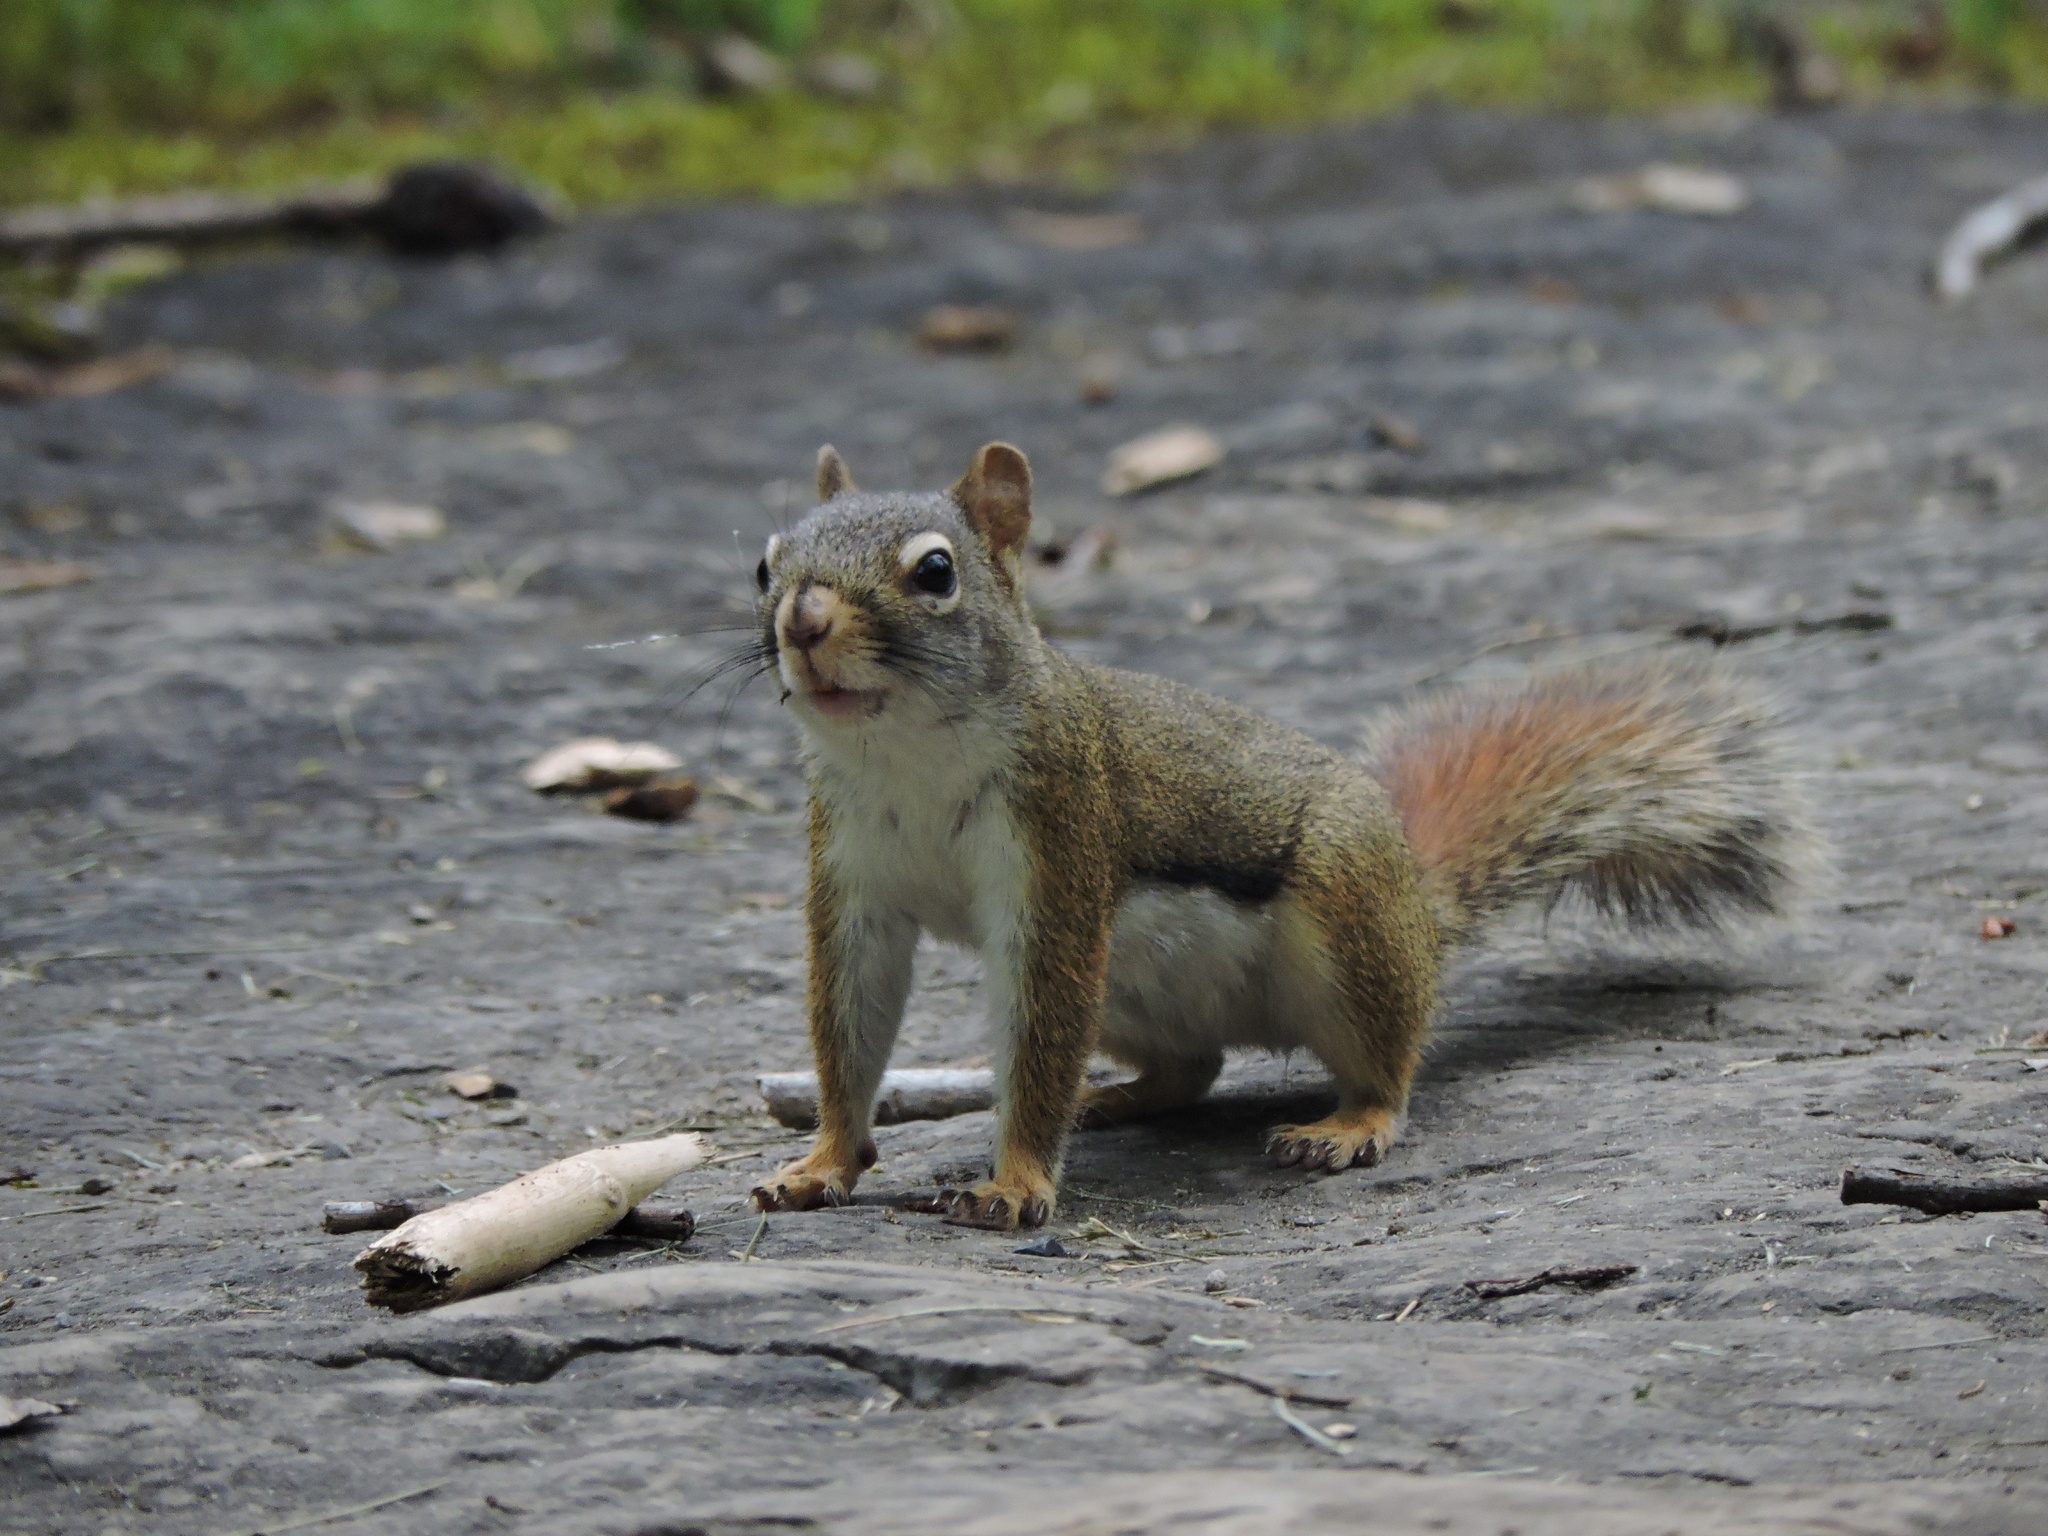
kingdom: Animalia
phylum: Chordata
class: Mammalia
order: Rodentia
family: Sciuridae
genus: Tamiasciurus
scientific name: Tamiasciurus hudsonicus
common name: Red squirrel
